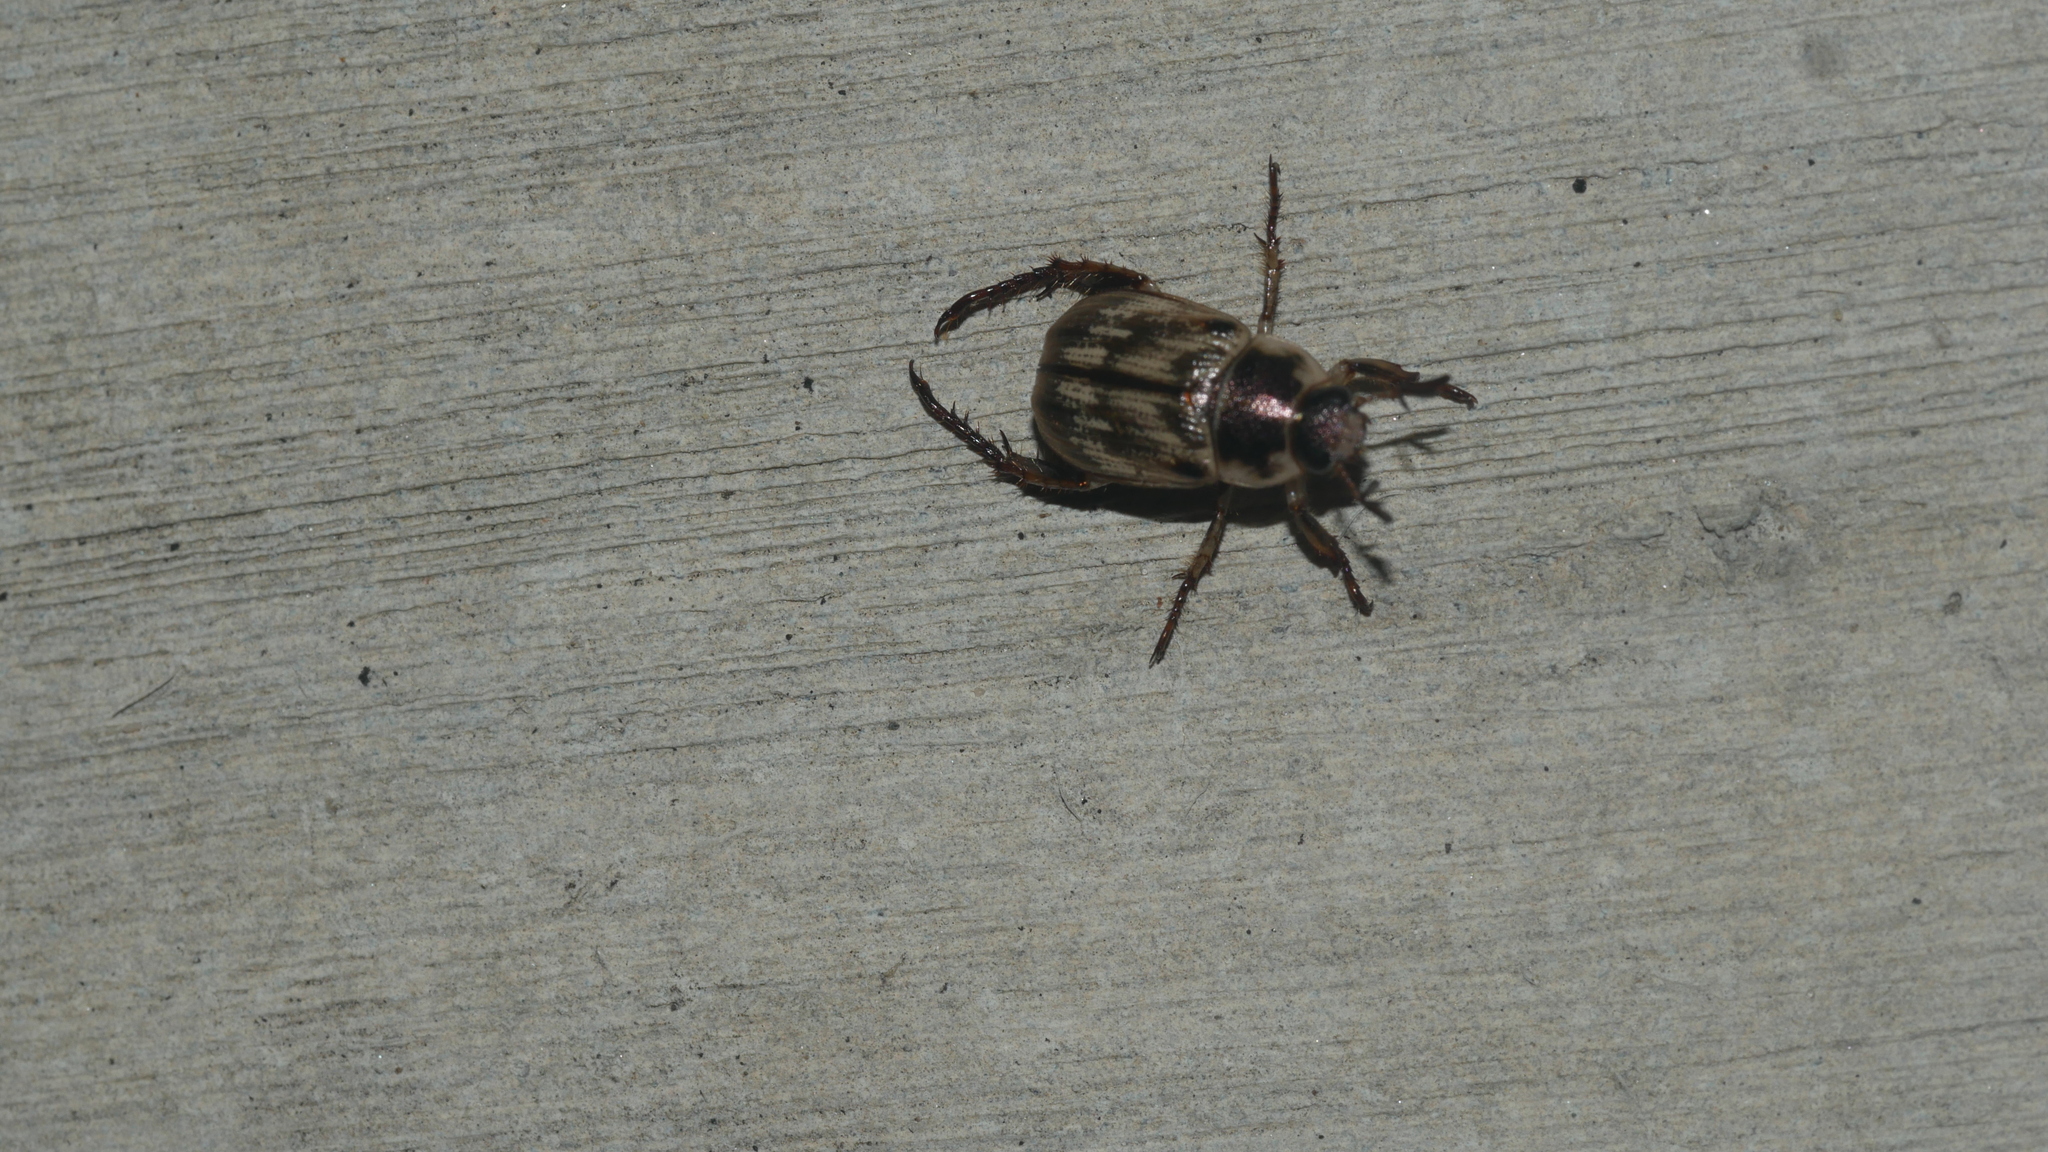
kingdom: Animalia
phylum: Arthropoda
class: Insecta
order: Coleoptera
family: Scarabaeidae
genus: Exomala
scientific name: Exomala orientalis
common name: Oriental beetle
